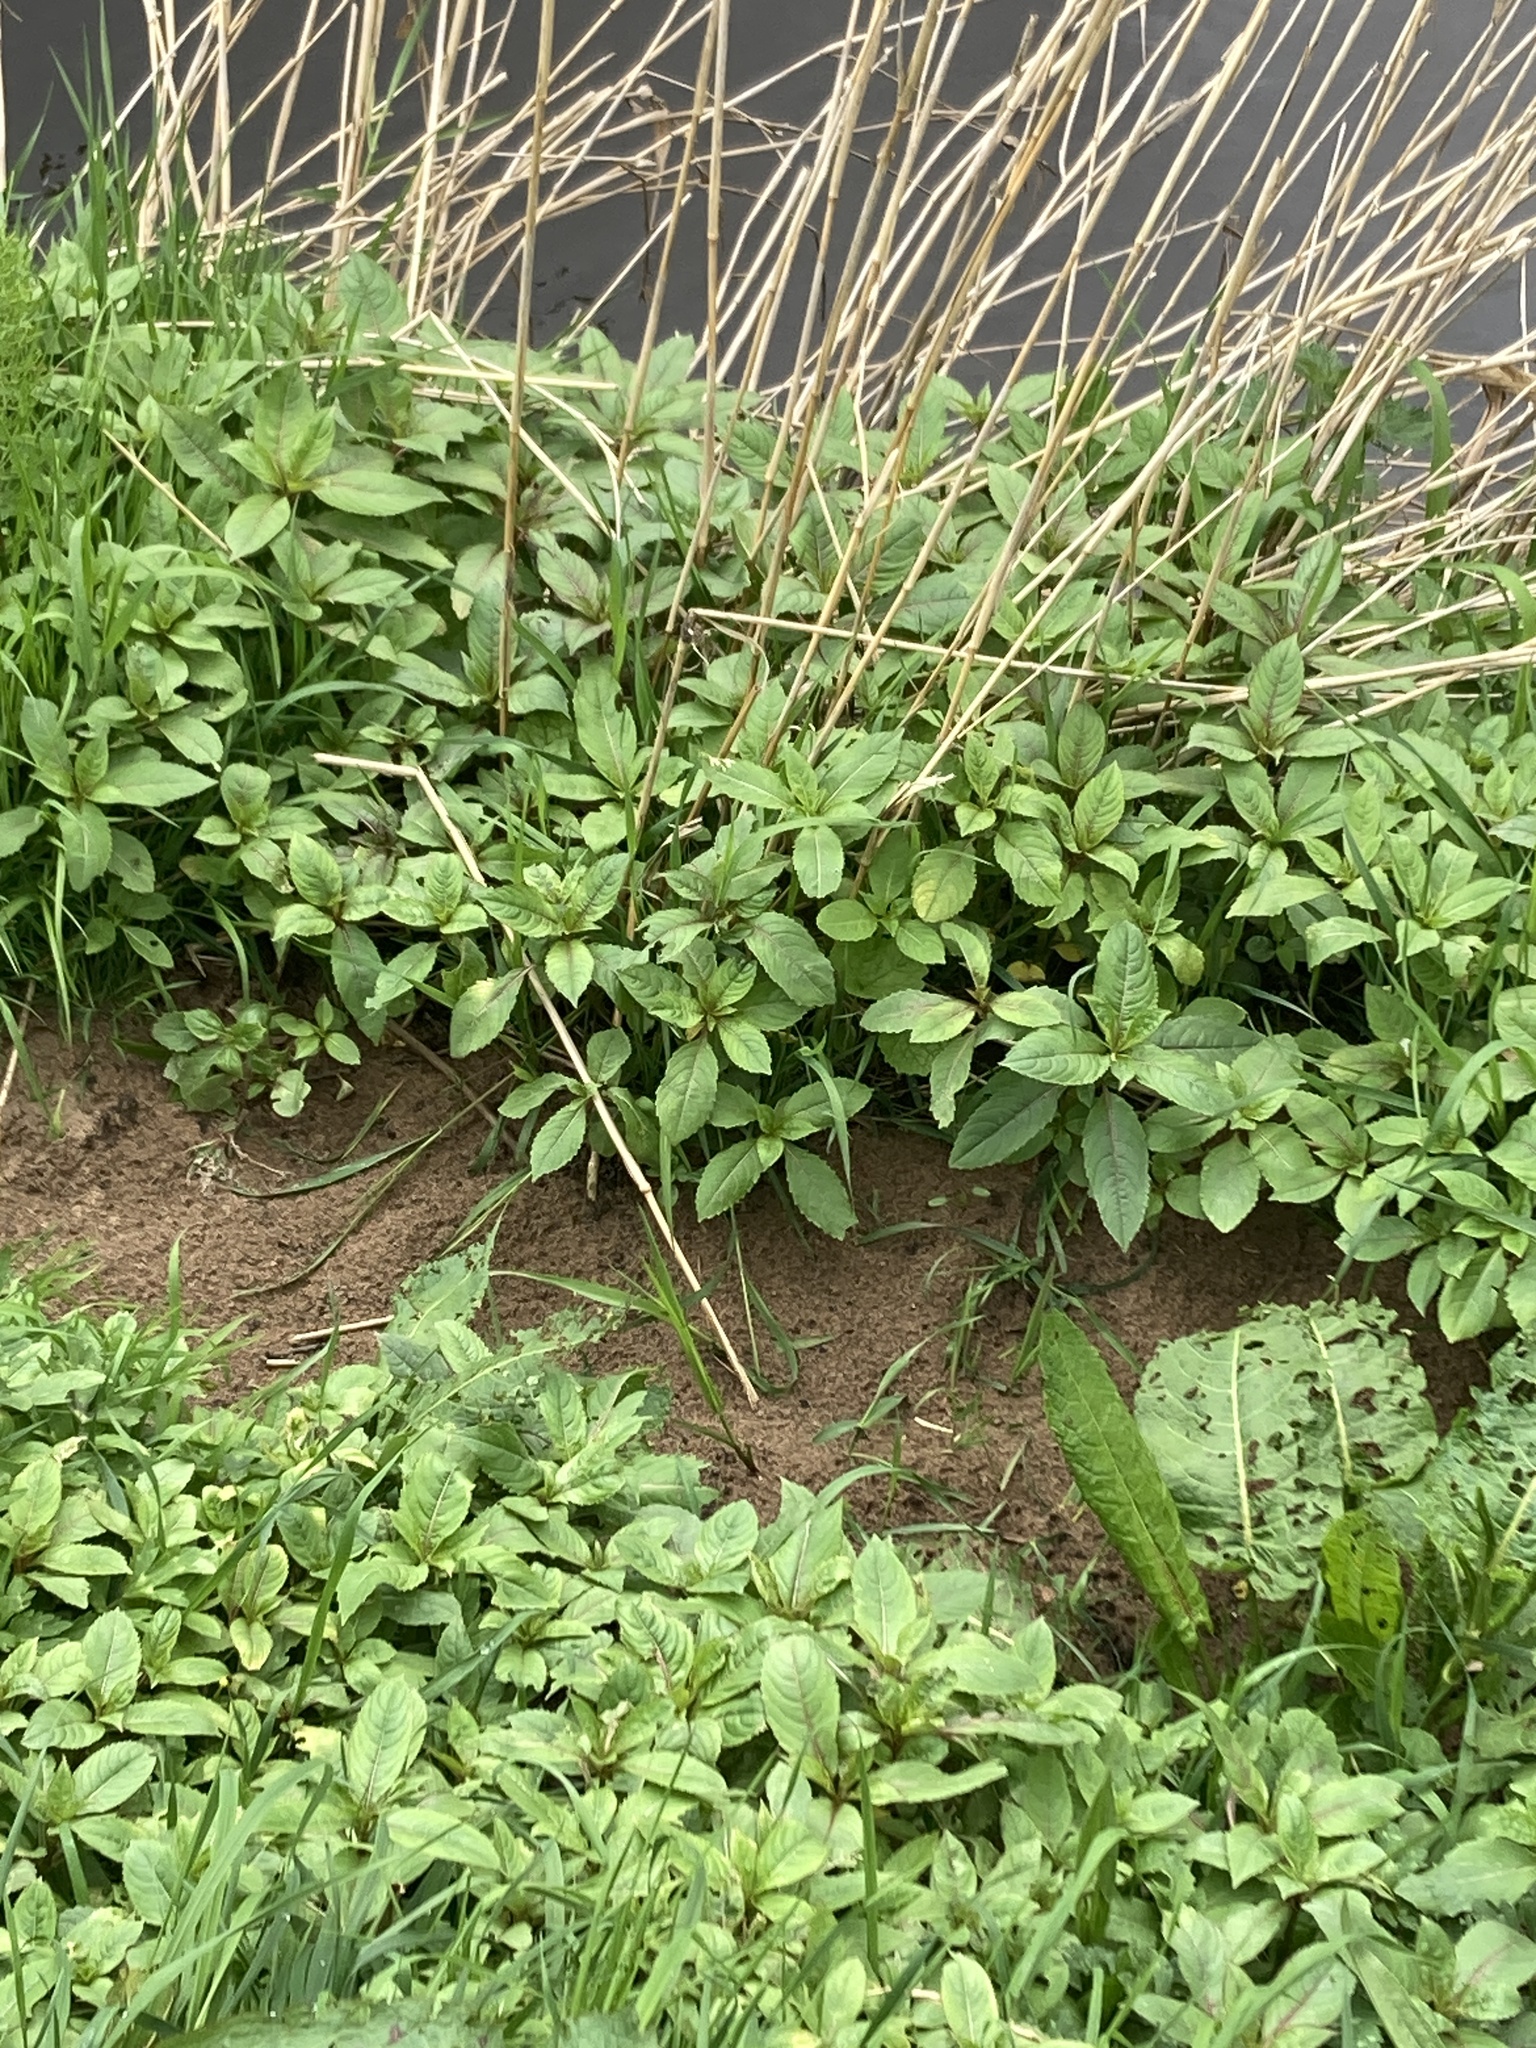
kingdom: Plantae
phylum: Tracheophyta
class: Magnoliopsida
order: Ericales
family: Balsaminaceae
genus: Impatiens
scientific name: Impatiens glandulifera
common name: Himalayan balsam
